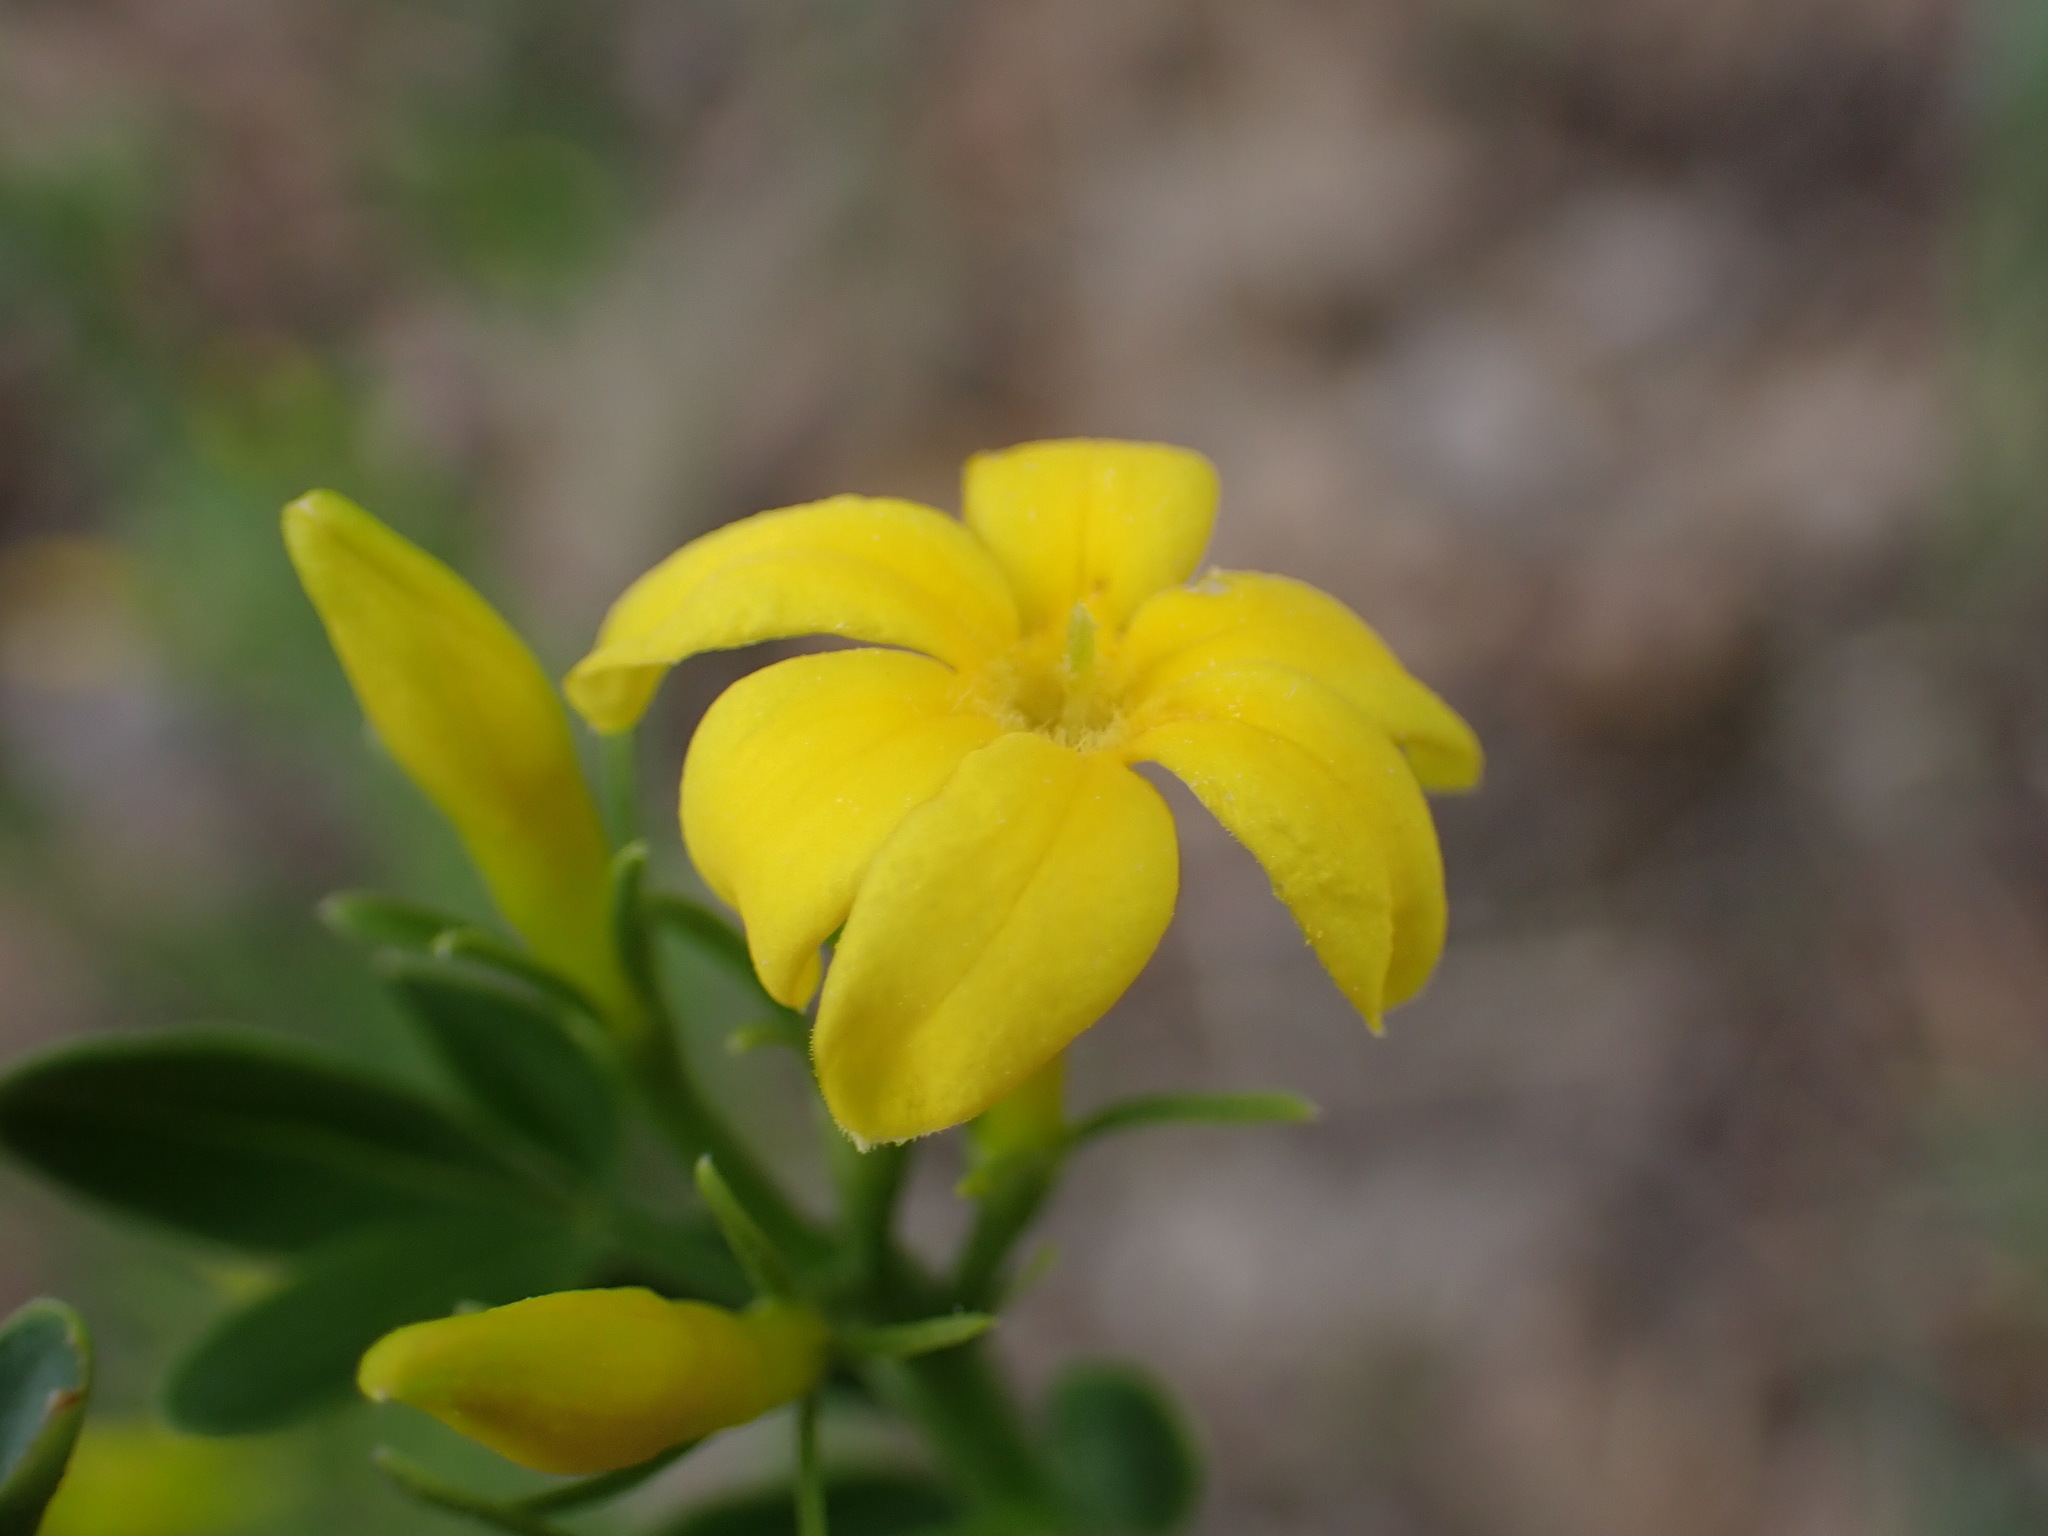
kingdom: Plantae
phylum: Tracheophyta
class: Magnoliopsida
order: Lamiales
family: Oleaceae
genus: Chrysojasminum
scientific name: Chrysojasminum fruticans
